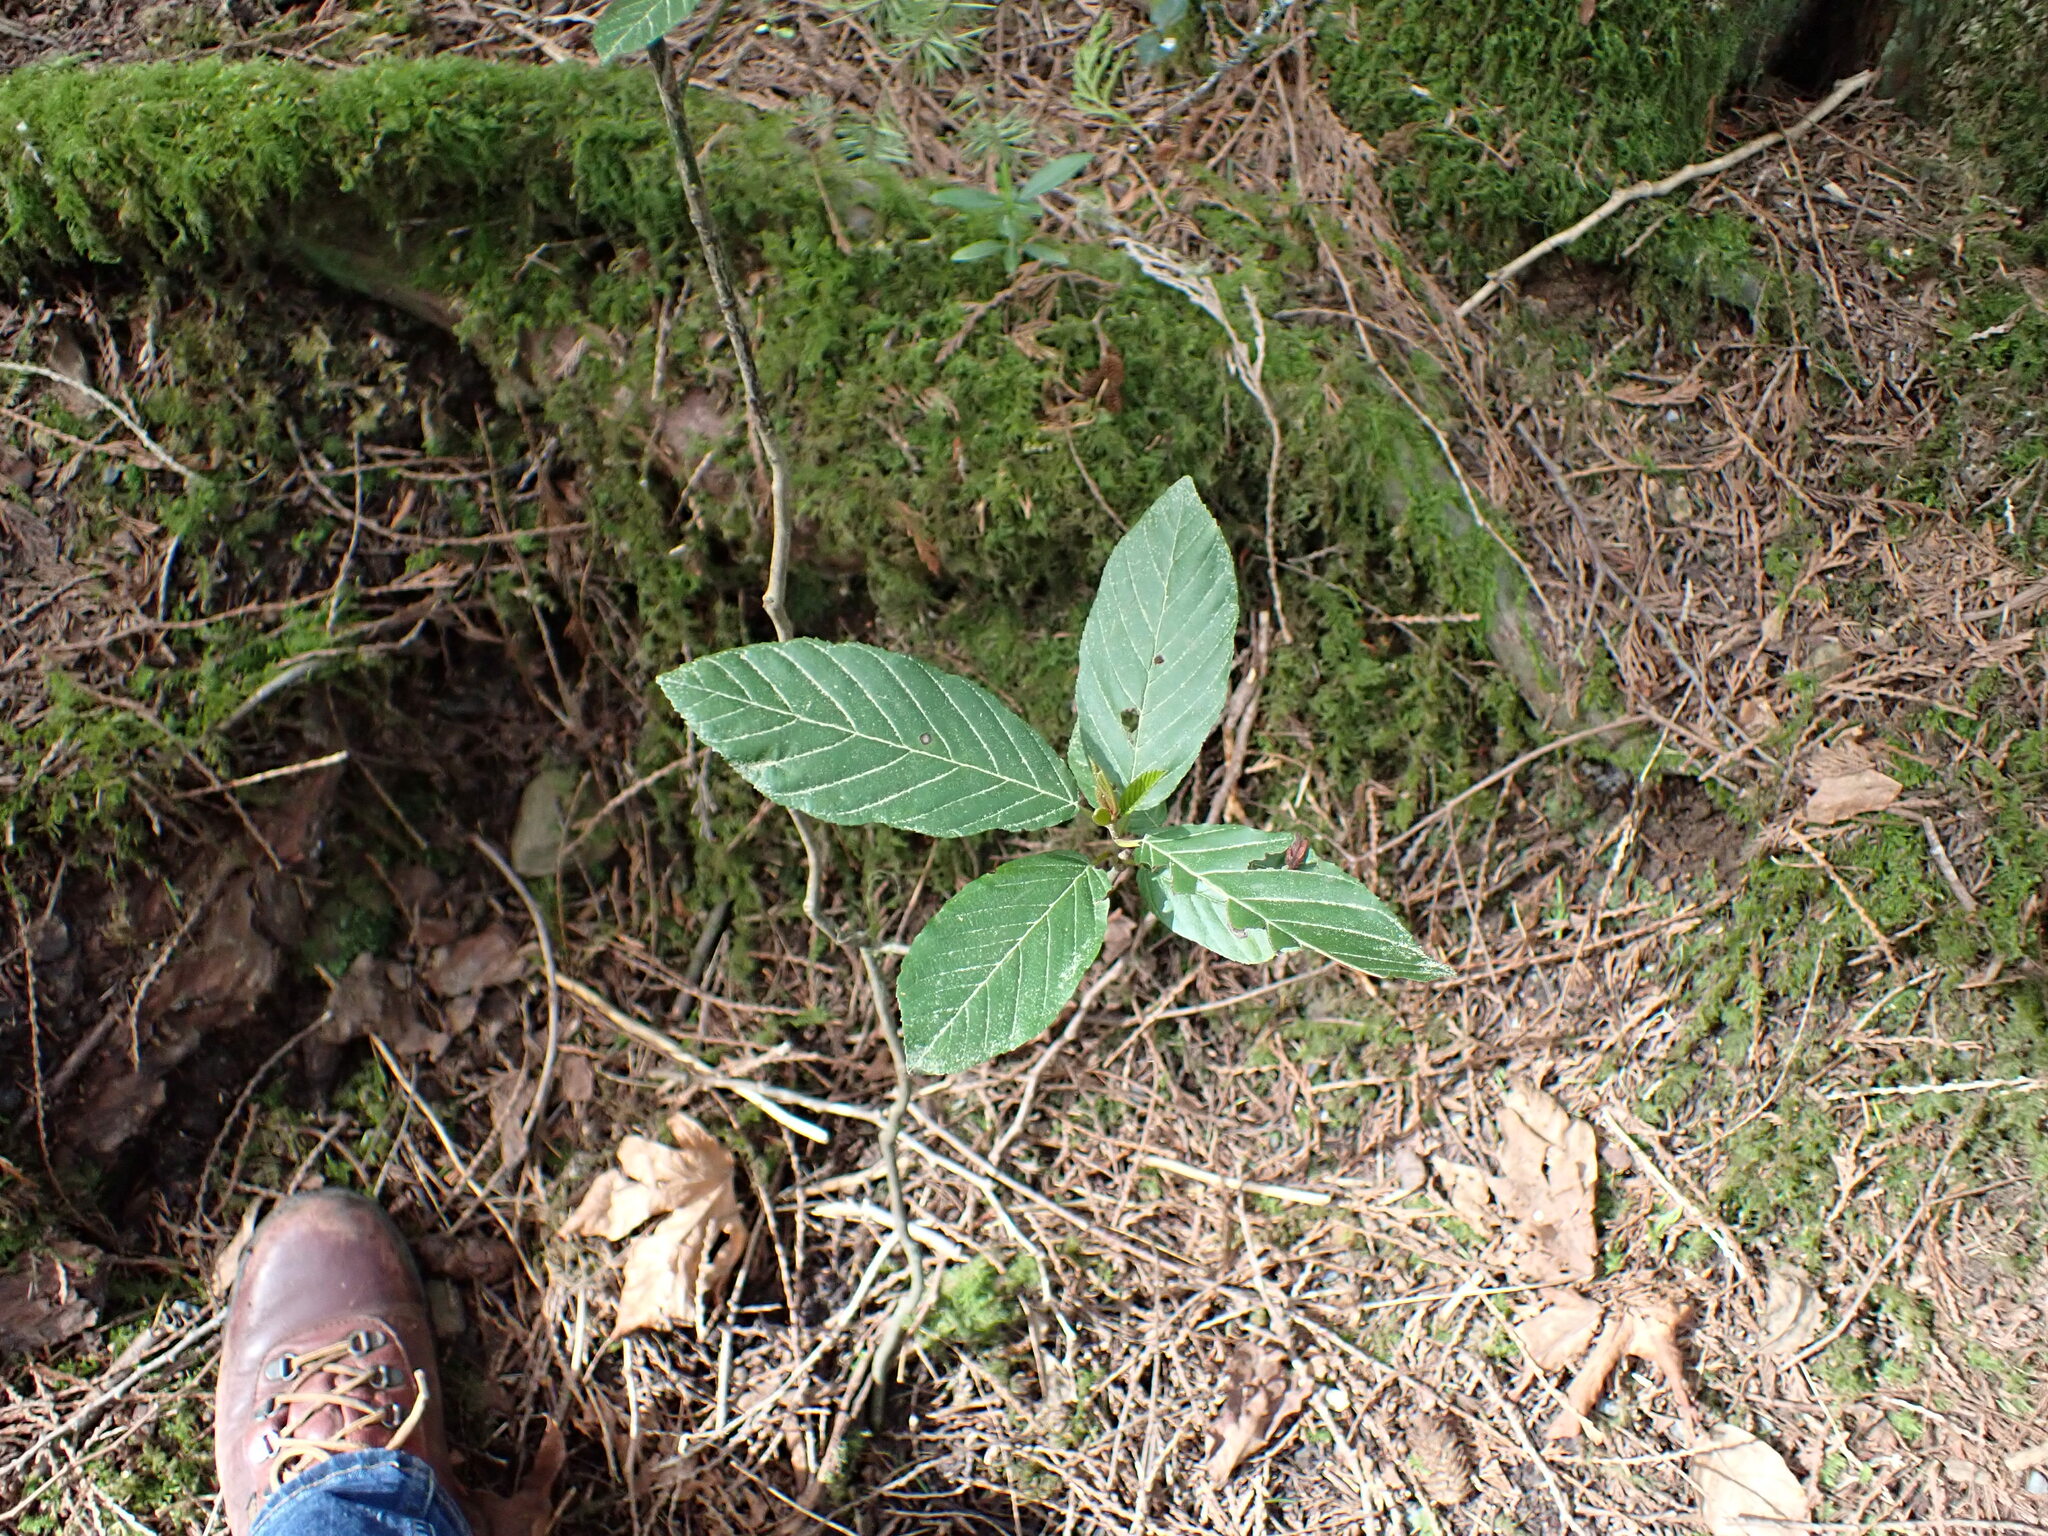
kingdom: Plantae
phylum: Tracheophyta
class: Magnoliopsida
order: Rosales
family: Rhamnaceae
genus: Frangula
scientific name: Frangula purshiana
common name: Cascara buckthorn
